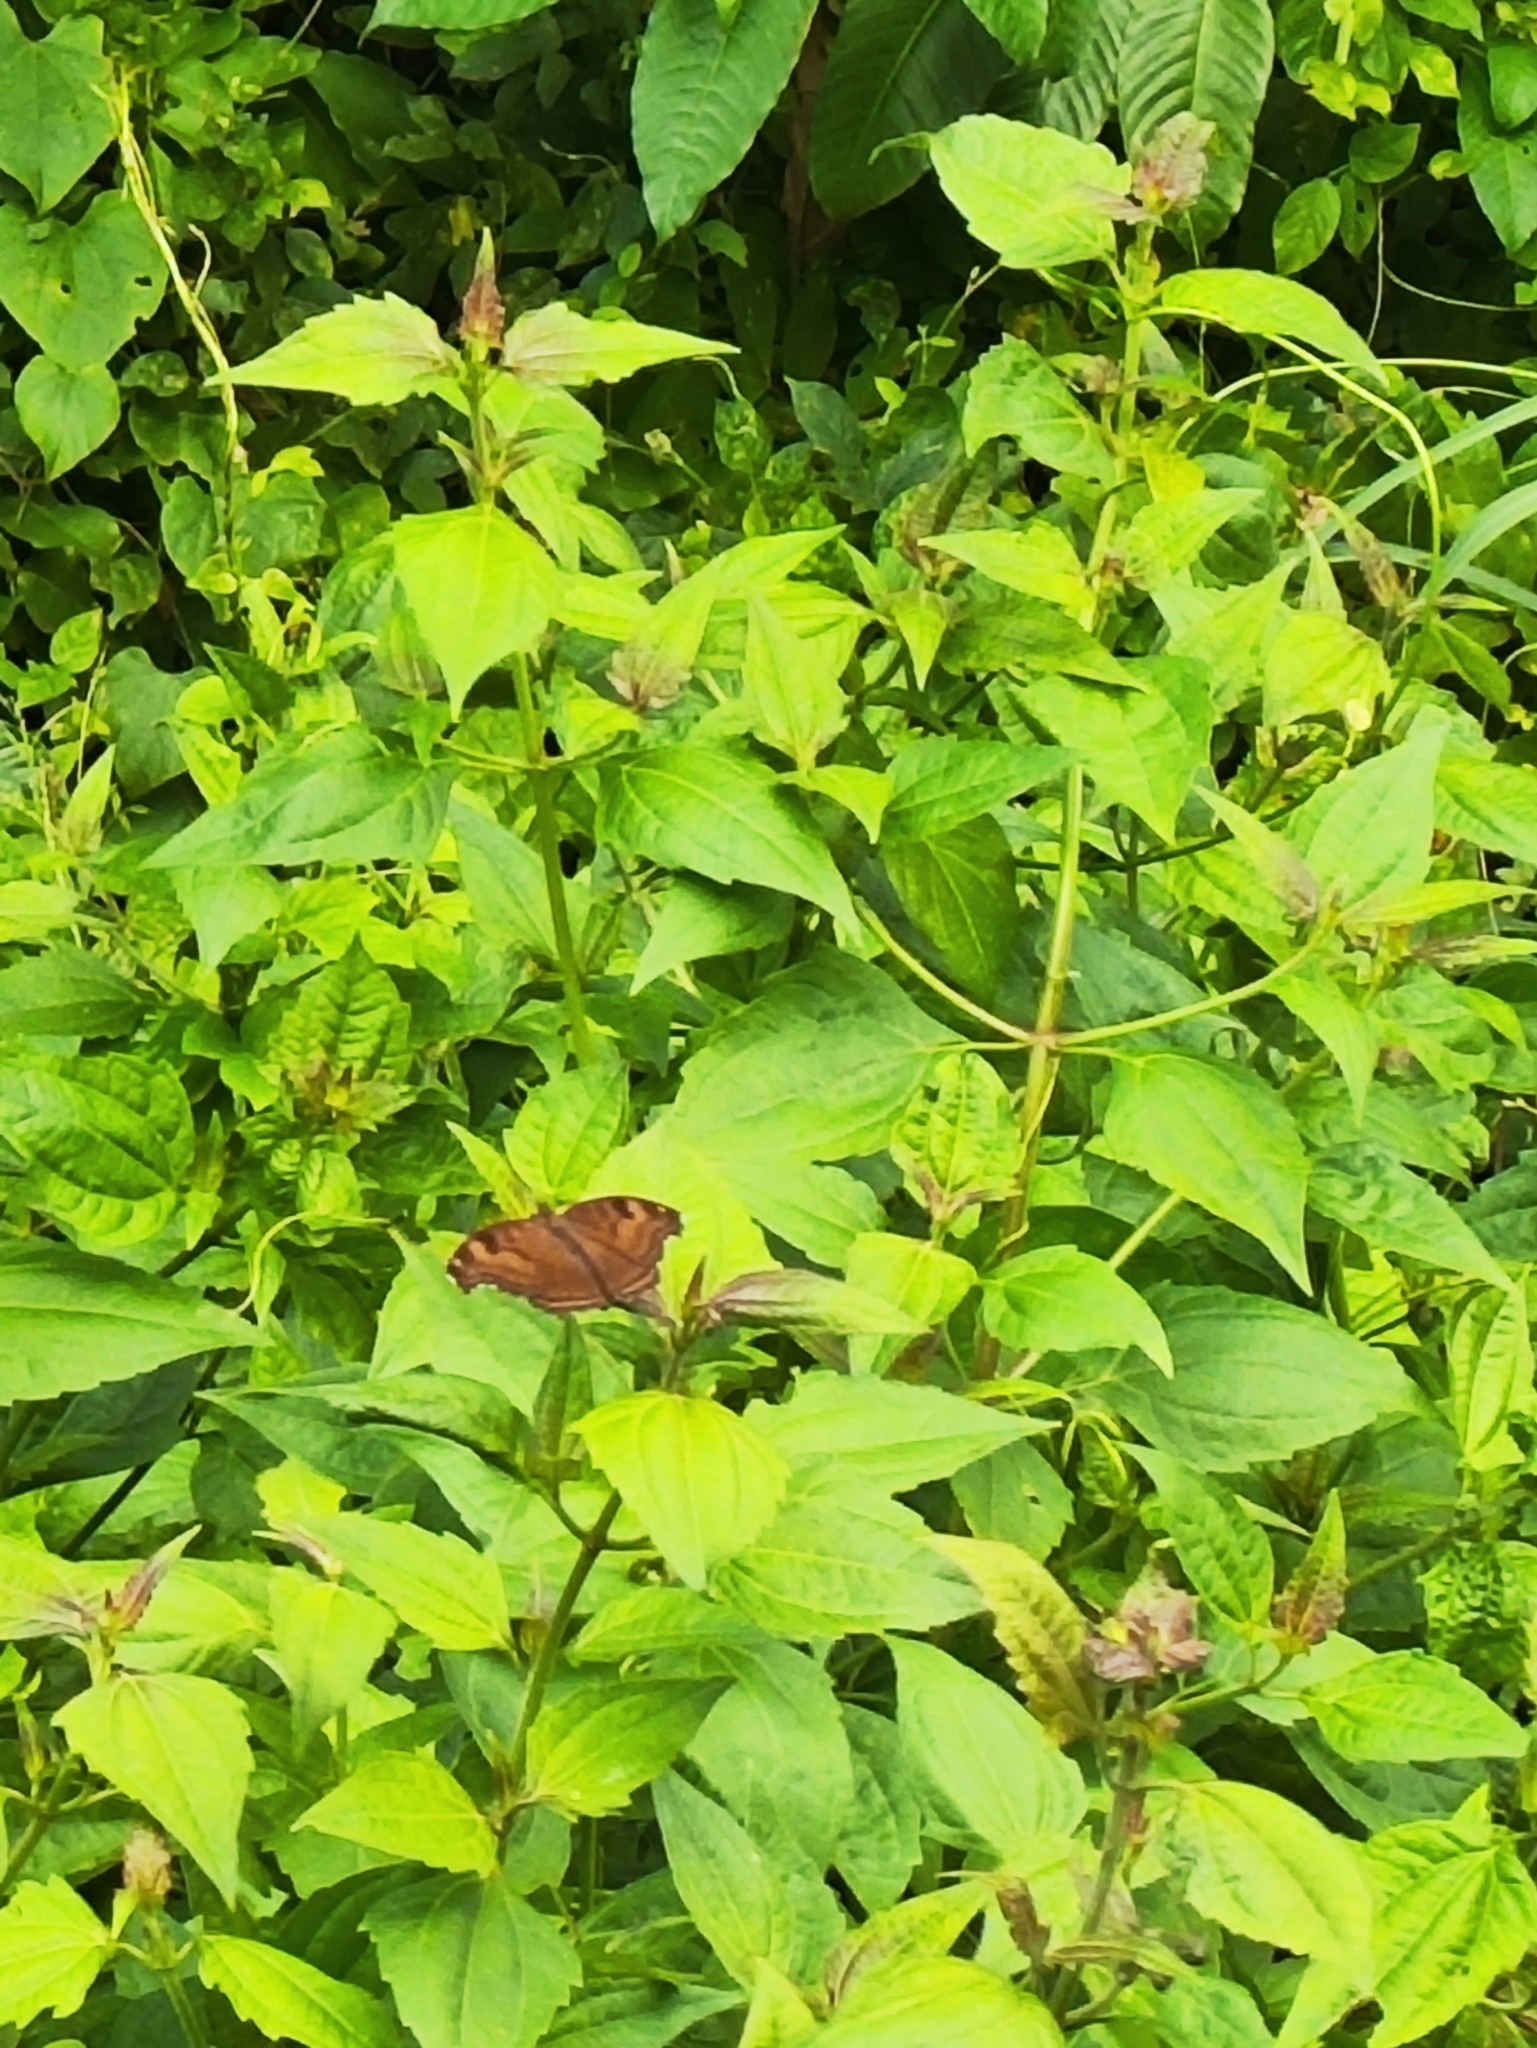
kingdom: Animalia
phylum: Arthropoda
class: Insecta
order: Lepidoptera
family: Nymphalidae
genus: Junonia
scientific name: Junonia iphita
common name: Chocolate pansy
